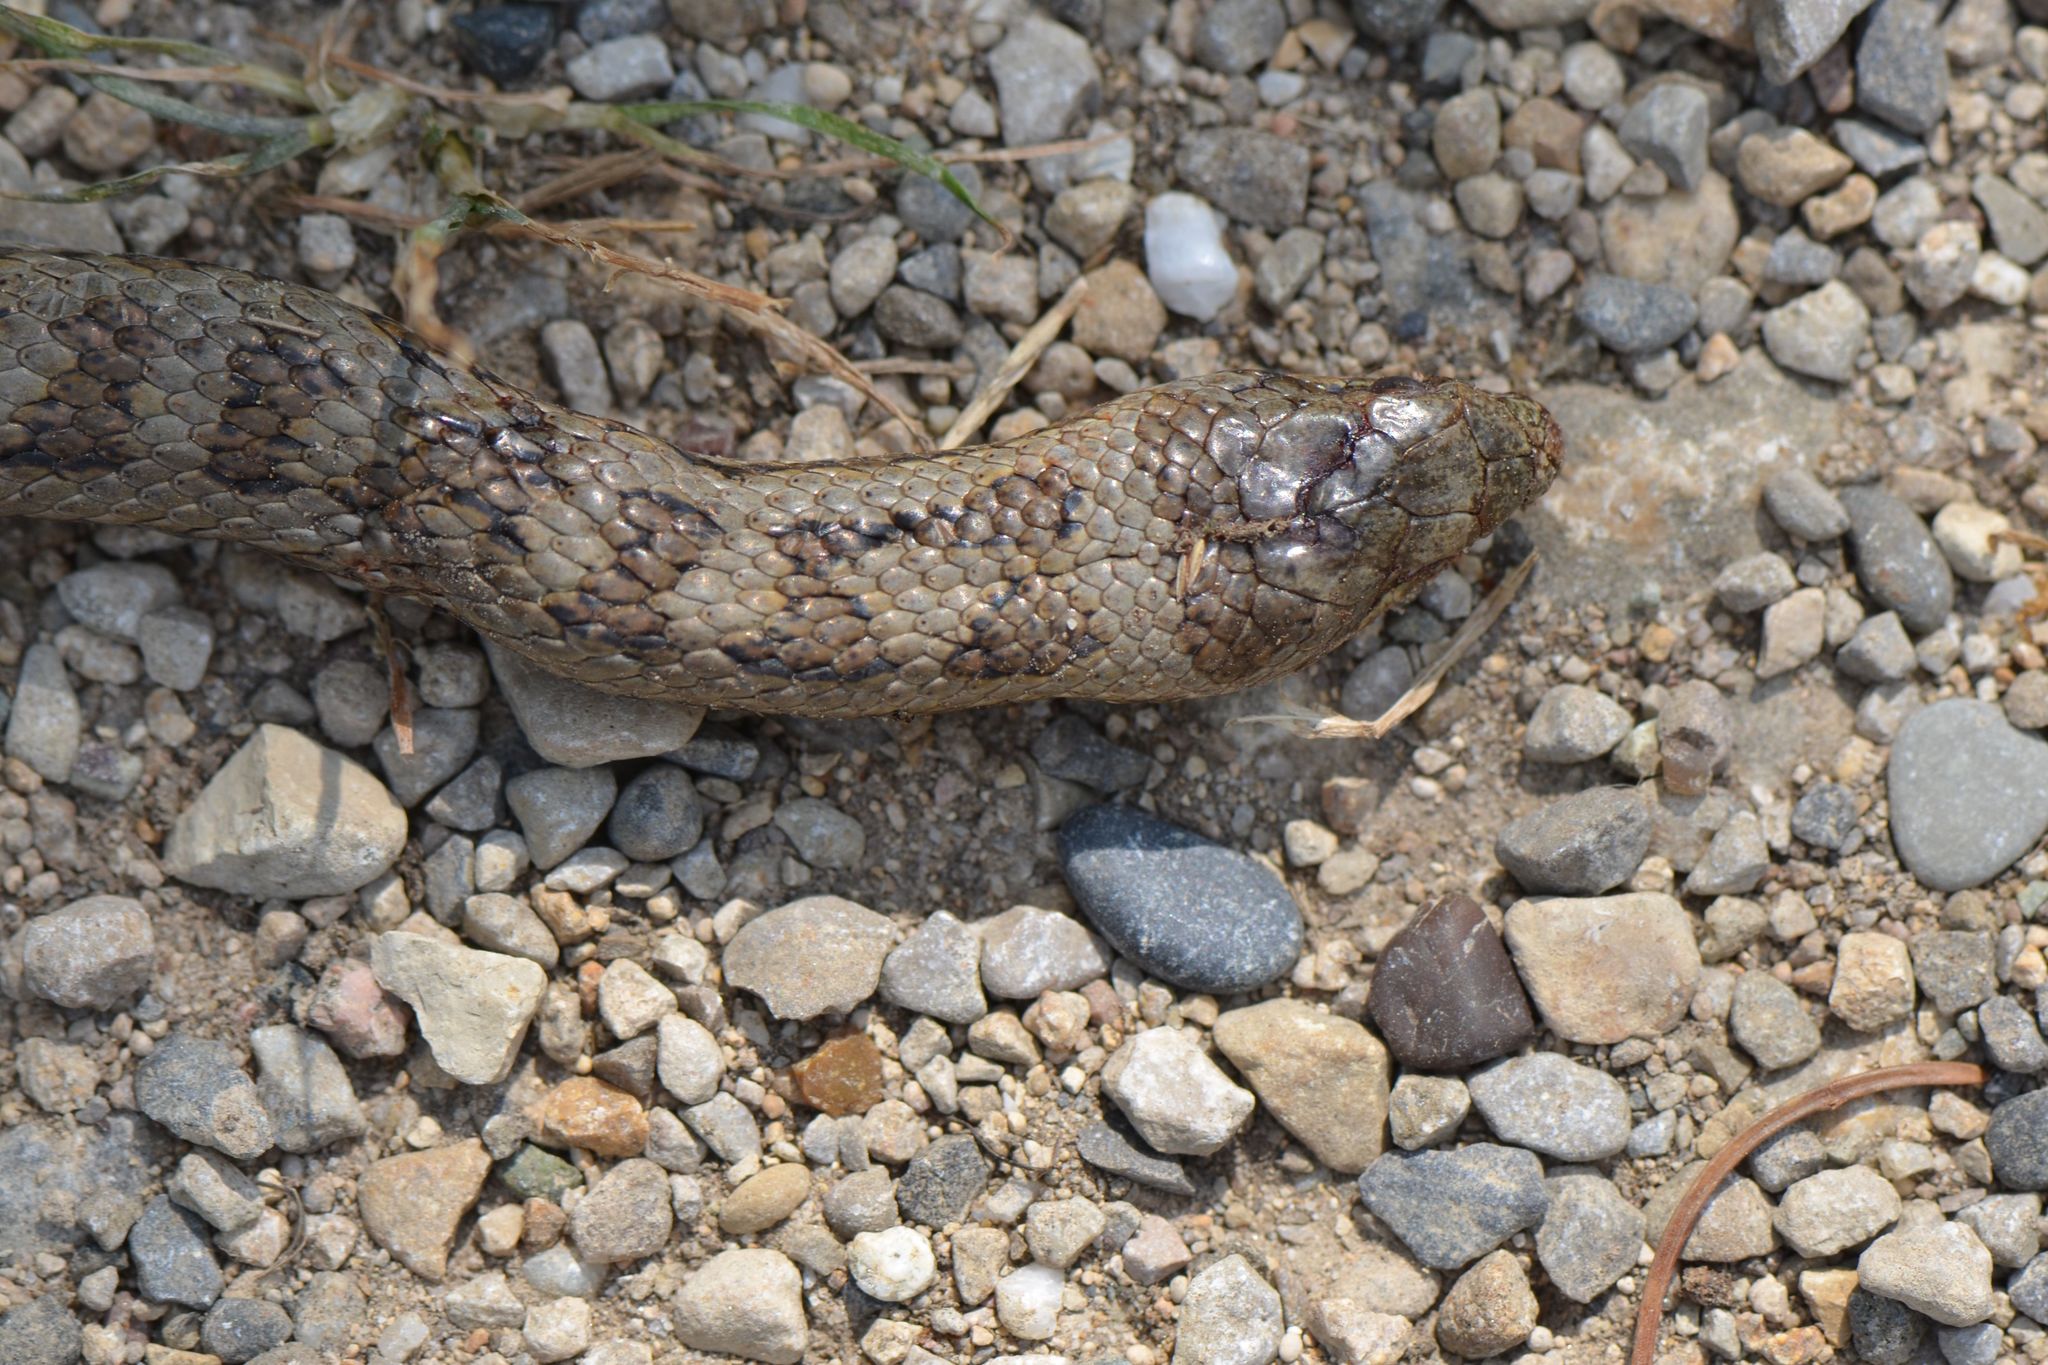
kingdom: Animalia
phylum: Chordata
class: Squamata
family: Colubridae
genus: Coronella
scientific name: Coronella austriaca
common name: Smooth snake
